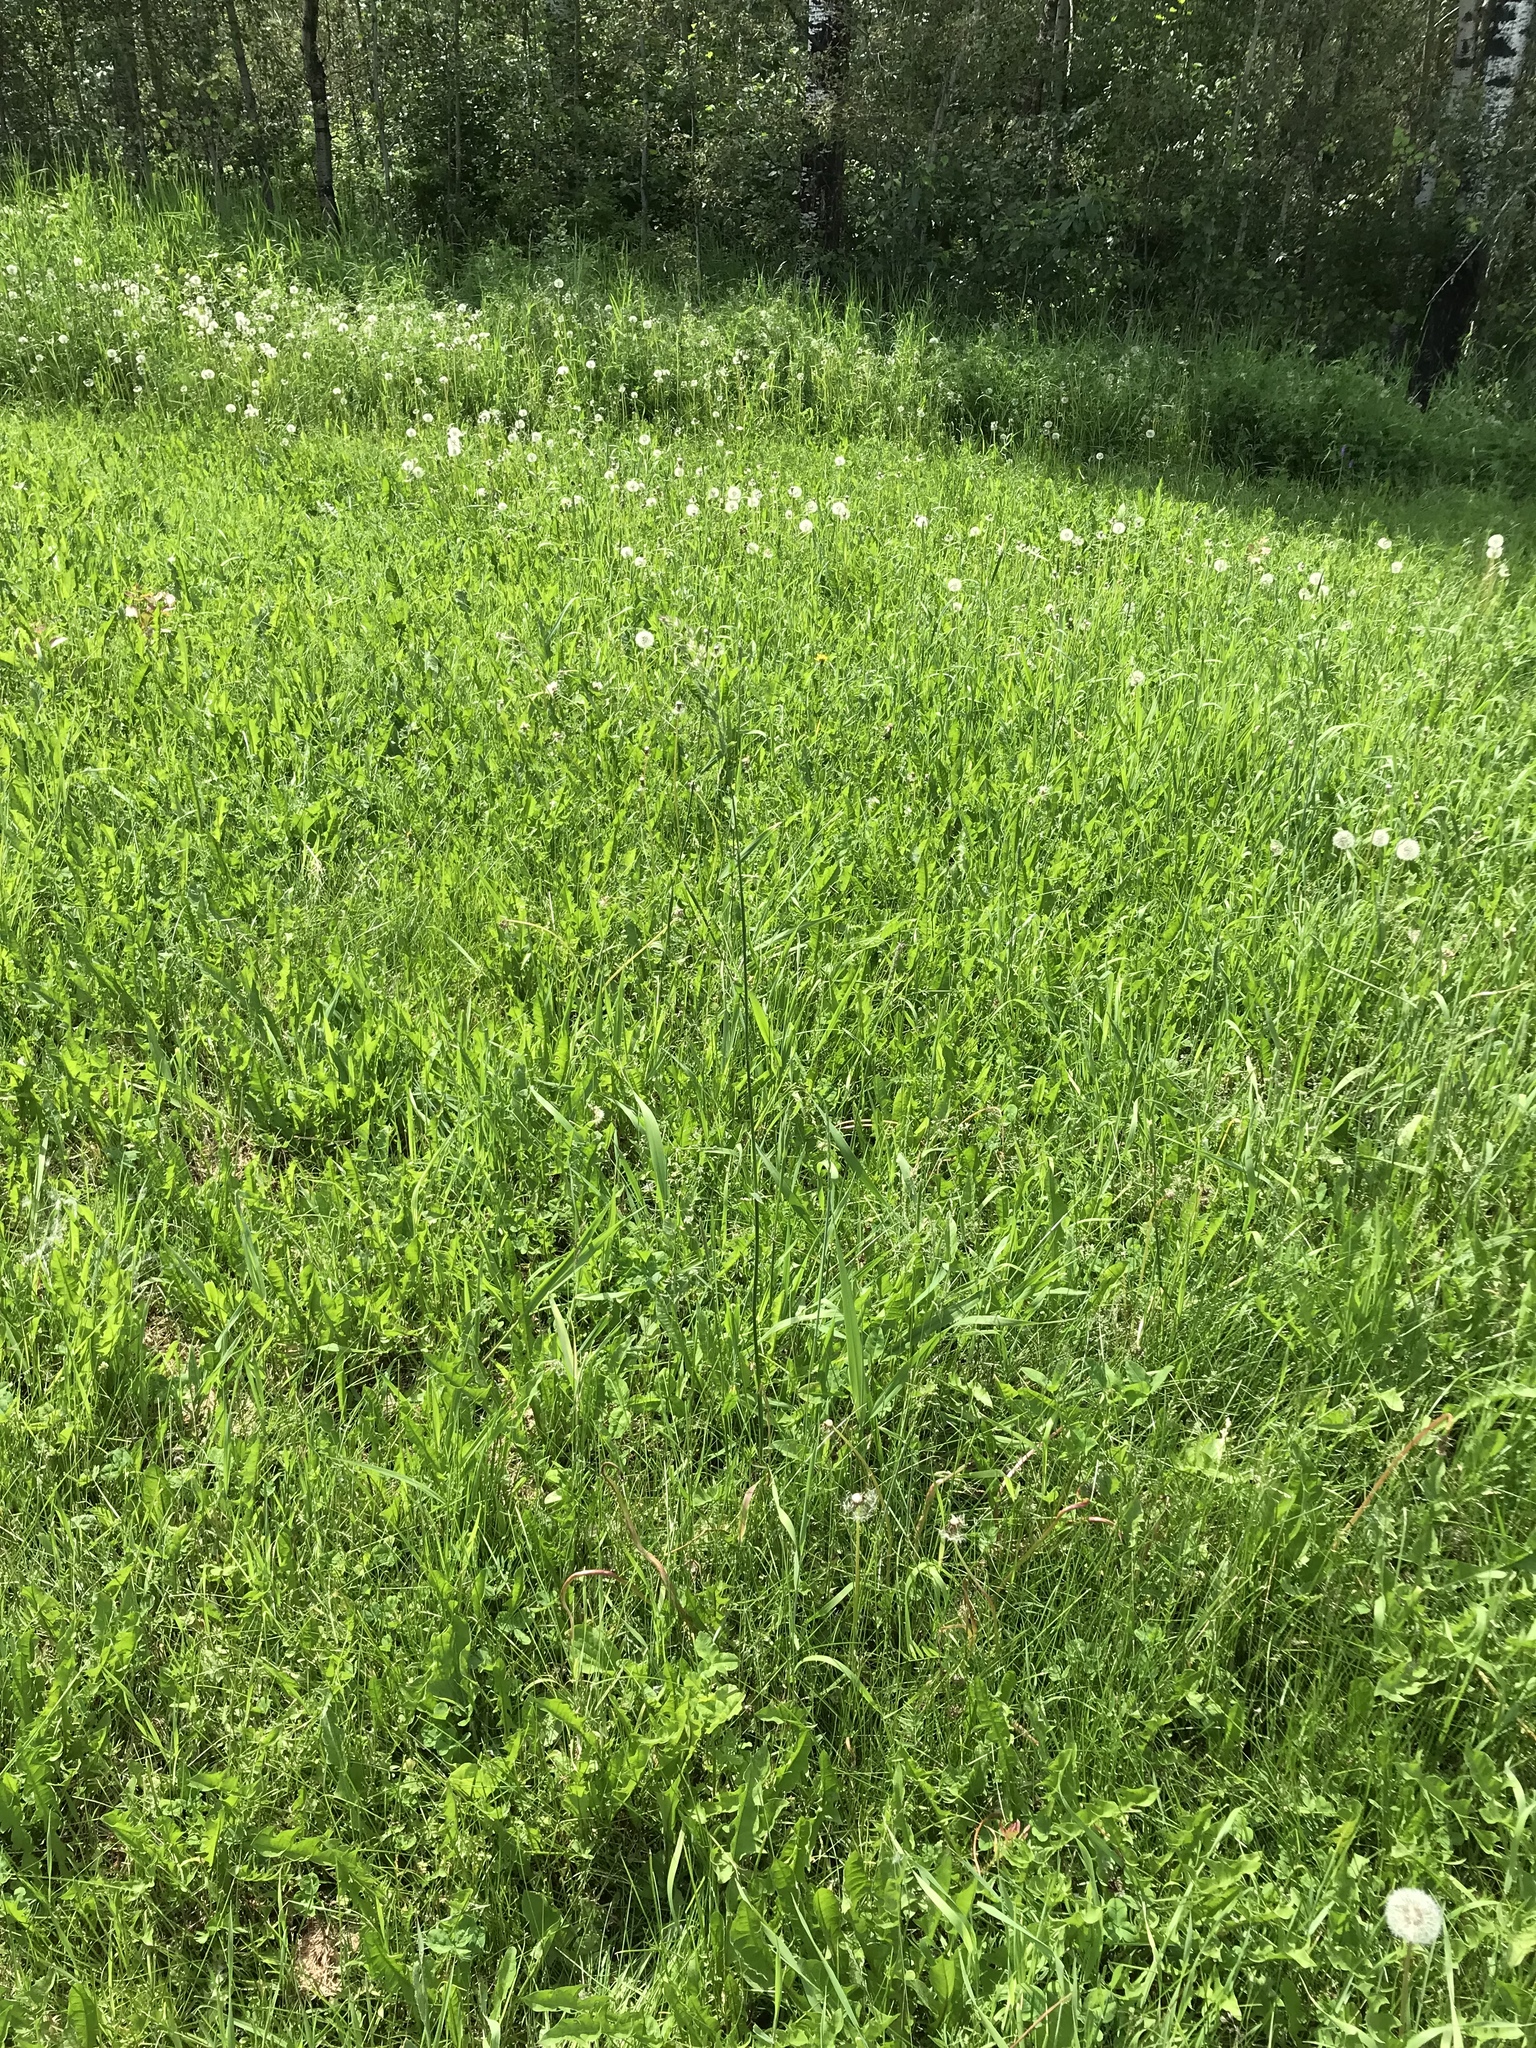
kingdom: Plantae
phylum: Tracheophyta
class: Liliopsida
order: Poales
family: Poaceae
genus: Phalaris
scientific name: Phalaris arundinacea
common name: Reed canary-grass
